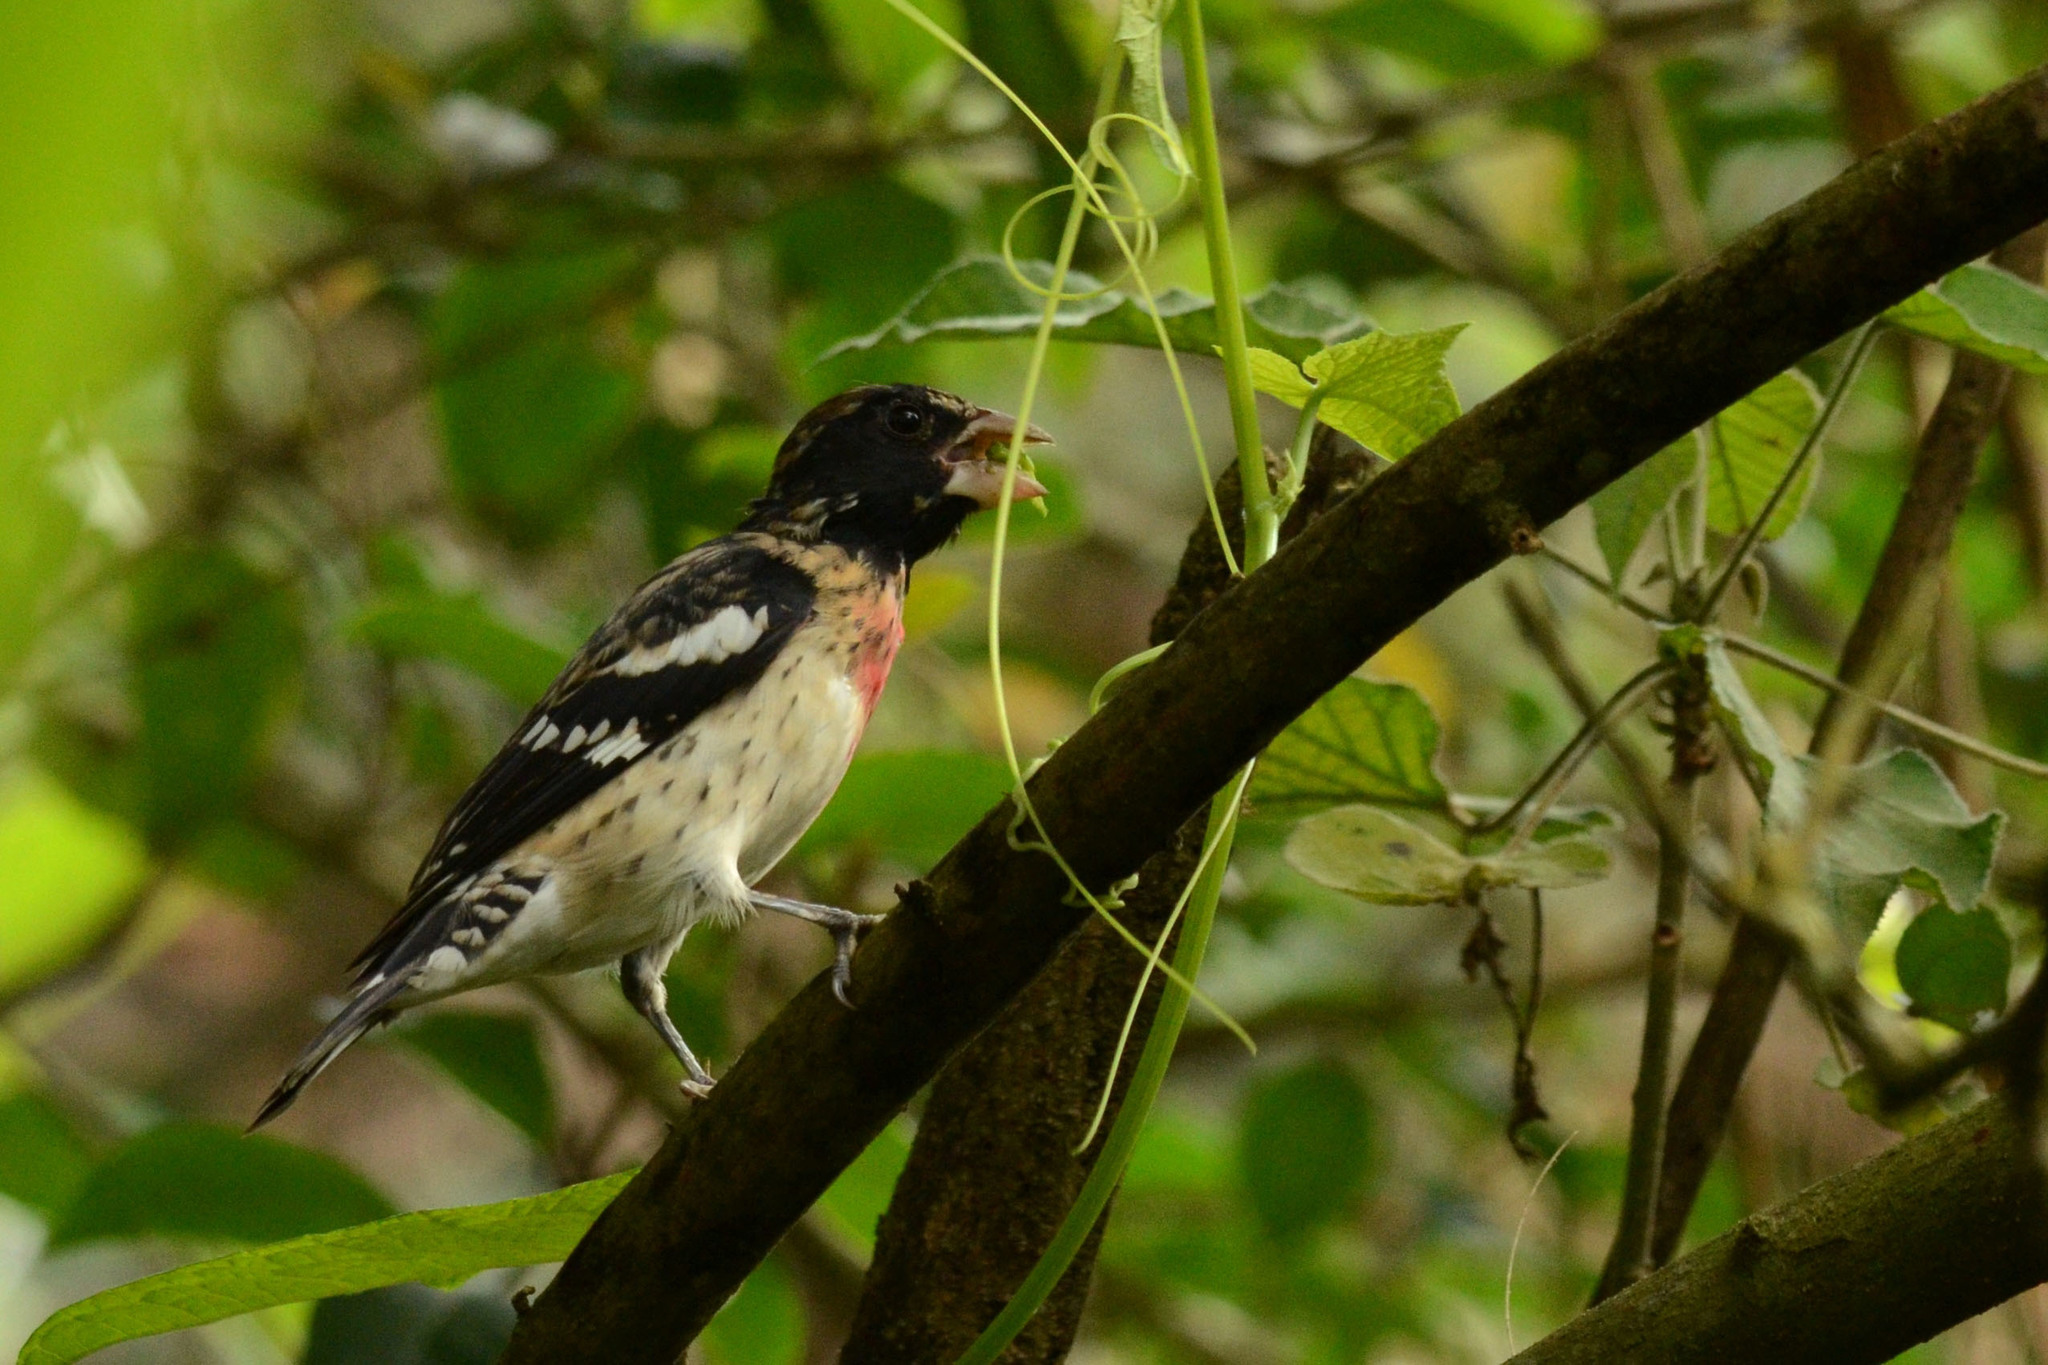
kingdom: Animalia
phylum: Chordata
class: Aves
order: Passeriformes
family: Cardinalidae
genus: Pheucticus
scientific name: Pheucticus ludovicianus
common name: Rose-breasted grosbeak
